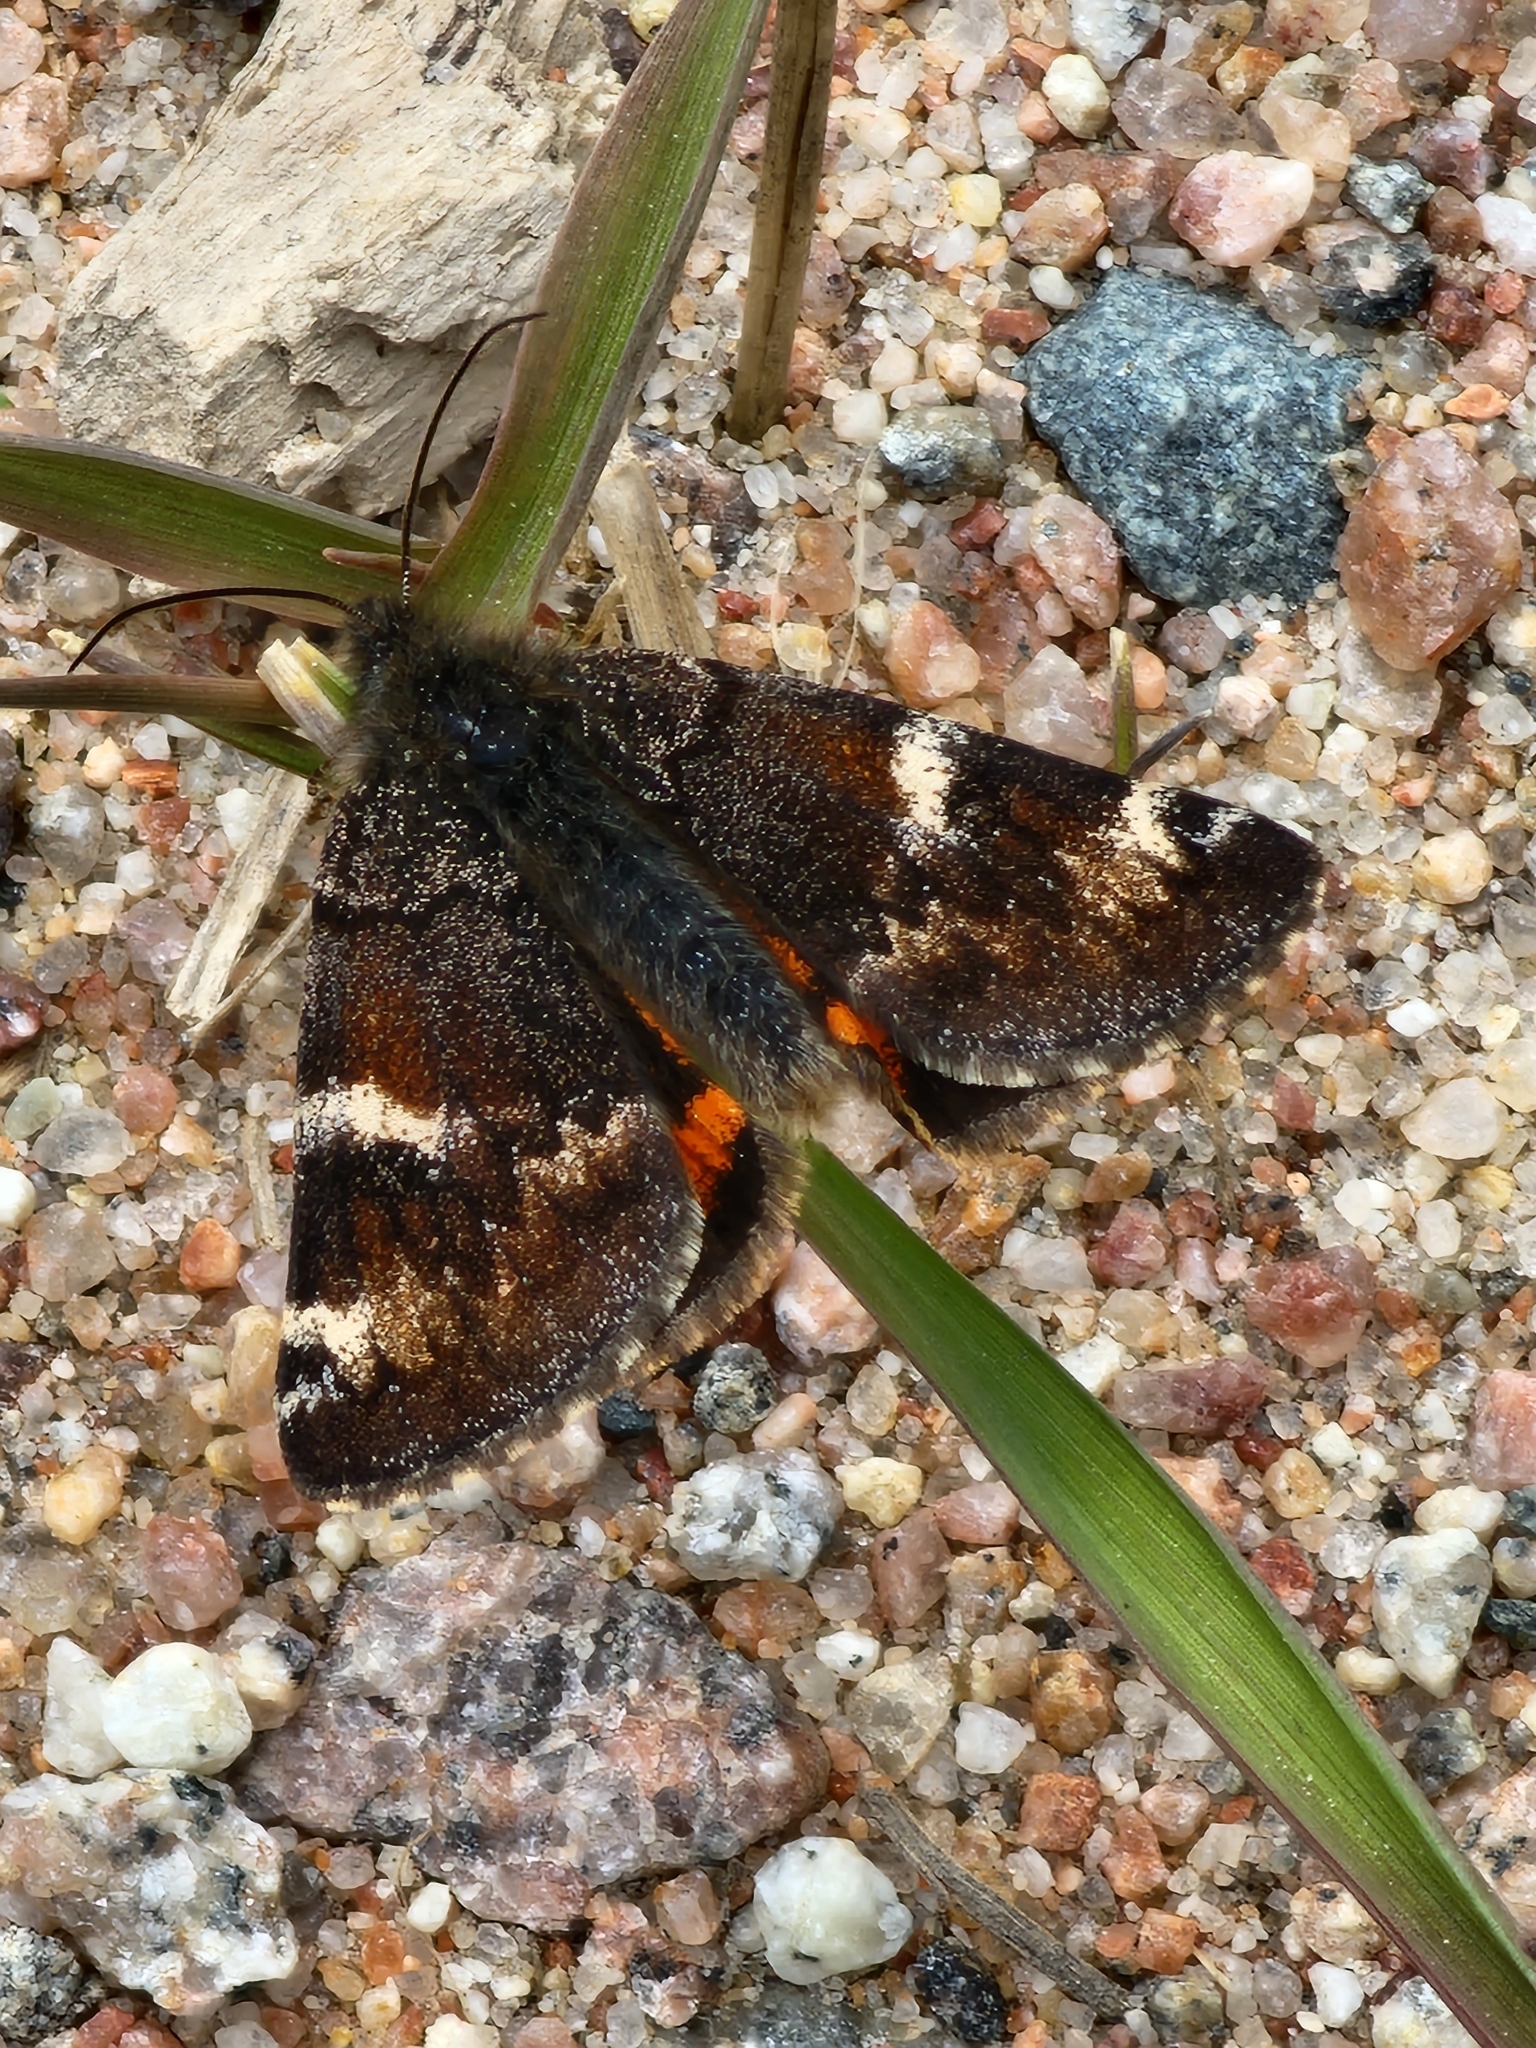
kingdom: Animalia
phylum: Arthropoda
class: Insecta
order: Lepidoptera
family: Geometridae
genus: Archiearis
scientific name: Archiearis infans
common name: First born geometer
